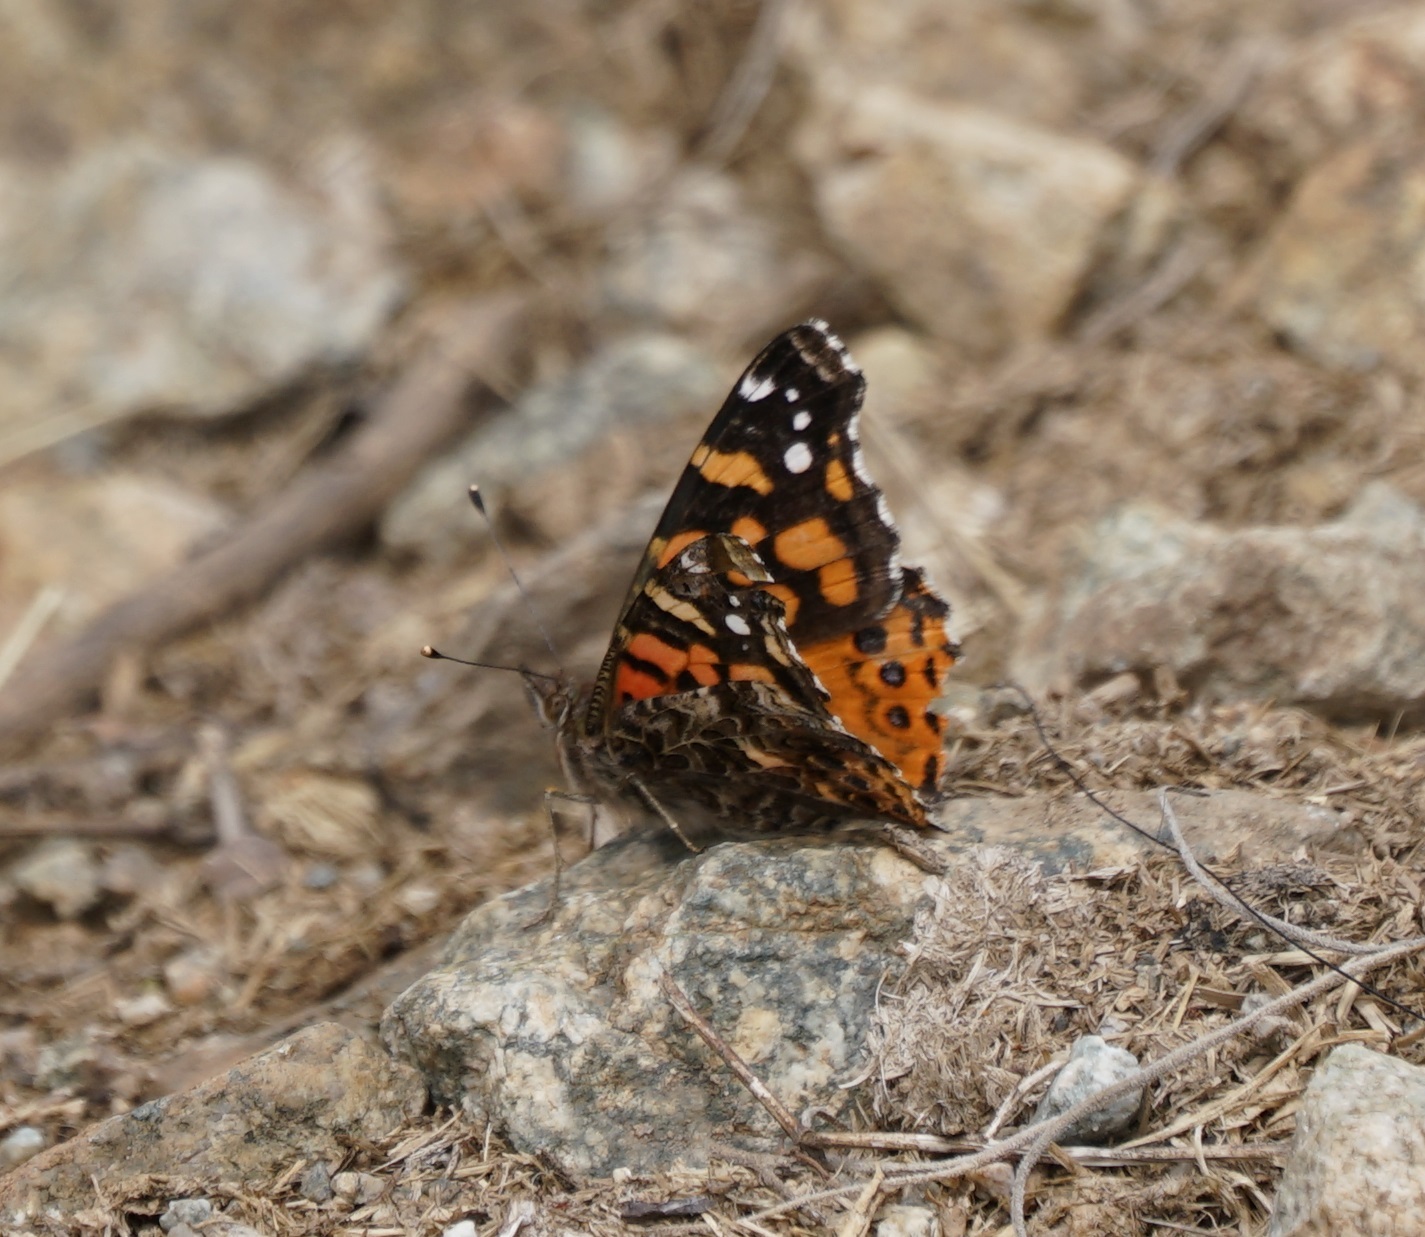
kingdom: Animalia
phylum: Arthropoda
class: Insecta
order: Lepidoptera
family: Nymphalidae
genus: Vanessa
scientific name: Vanessa carye
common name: Subtropical lady
